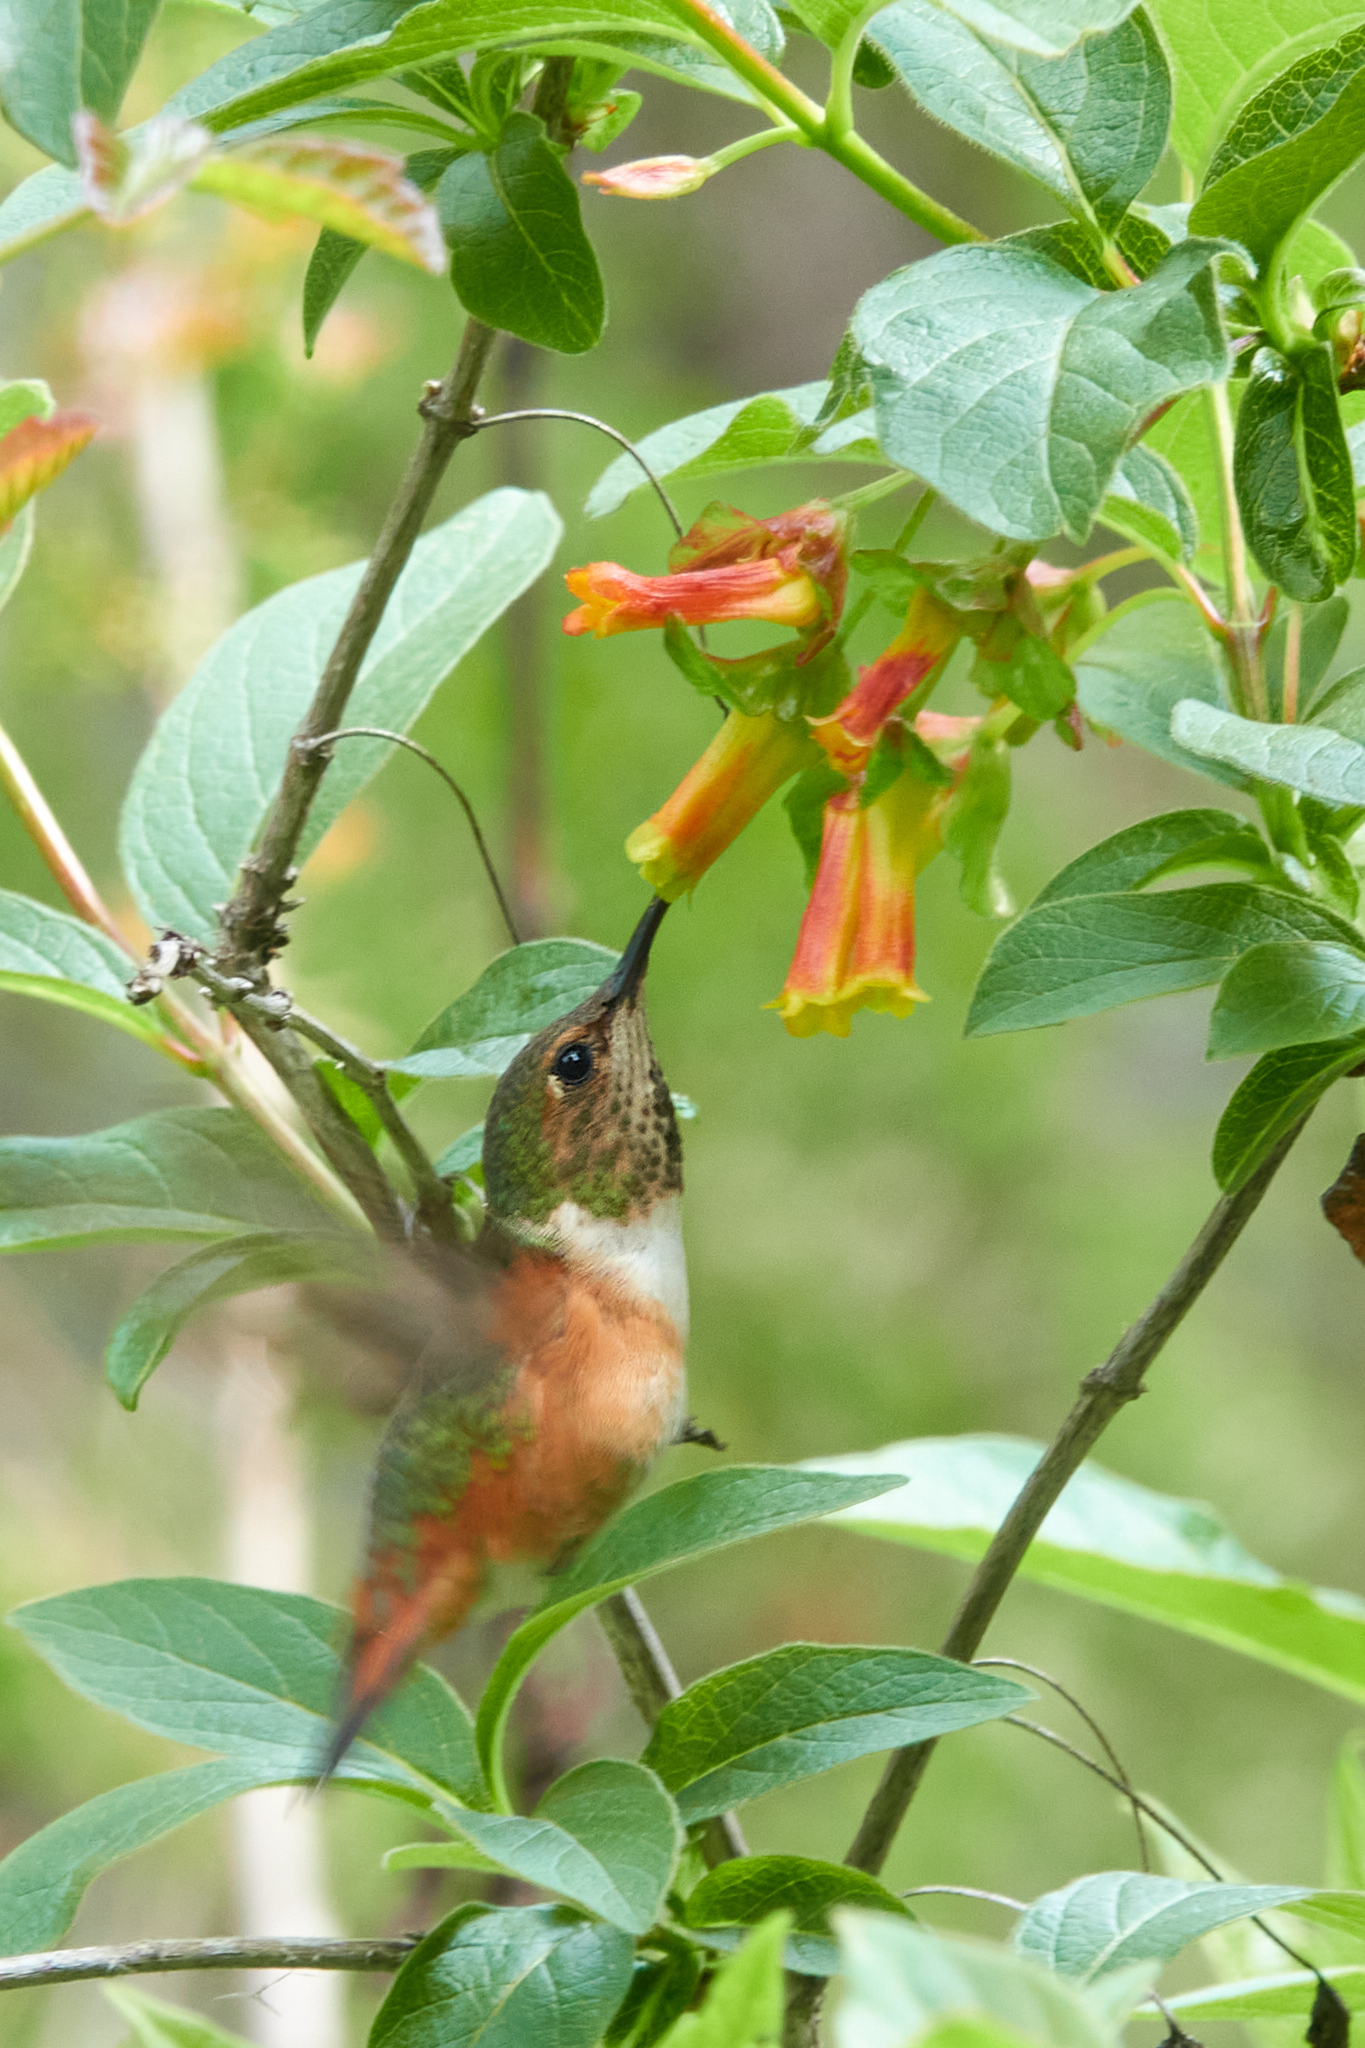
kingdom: Animalia
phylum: Chordata
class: Aves
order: Apodiformes
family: Trochilidae
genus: Selasphorus
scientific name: Selasphorus sasin
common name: Allen's hummingbird
